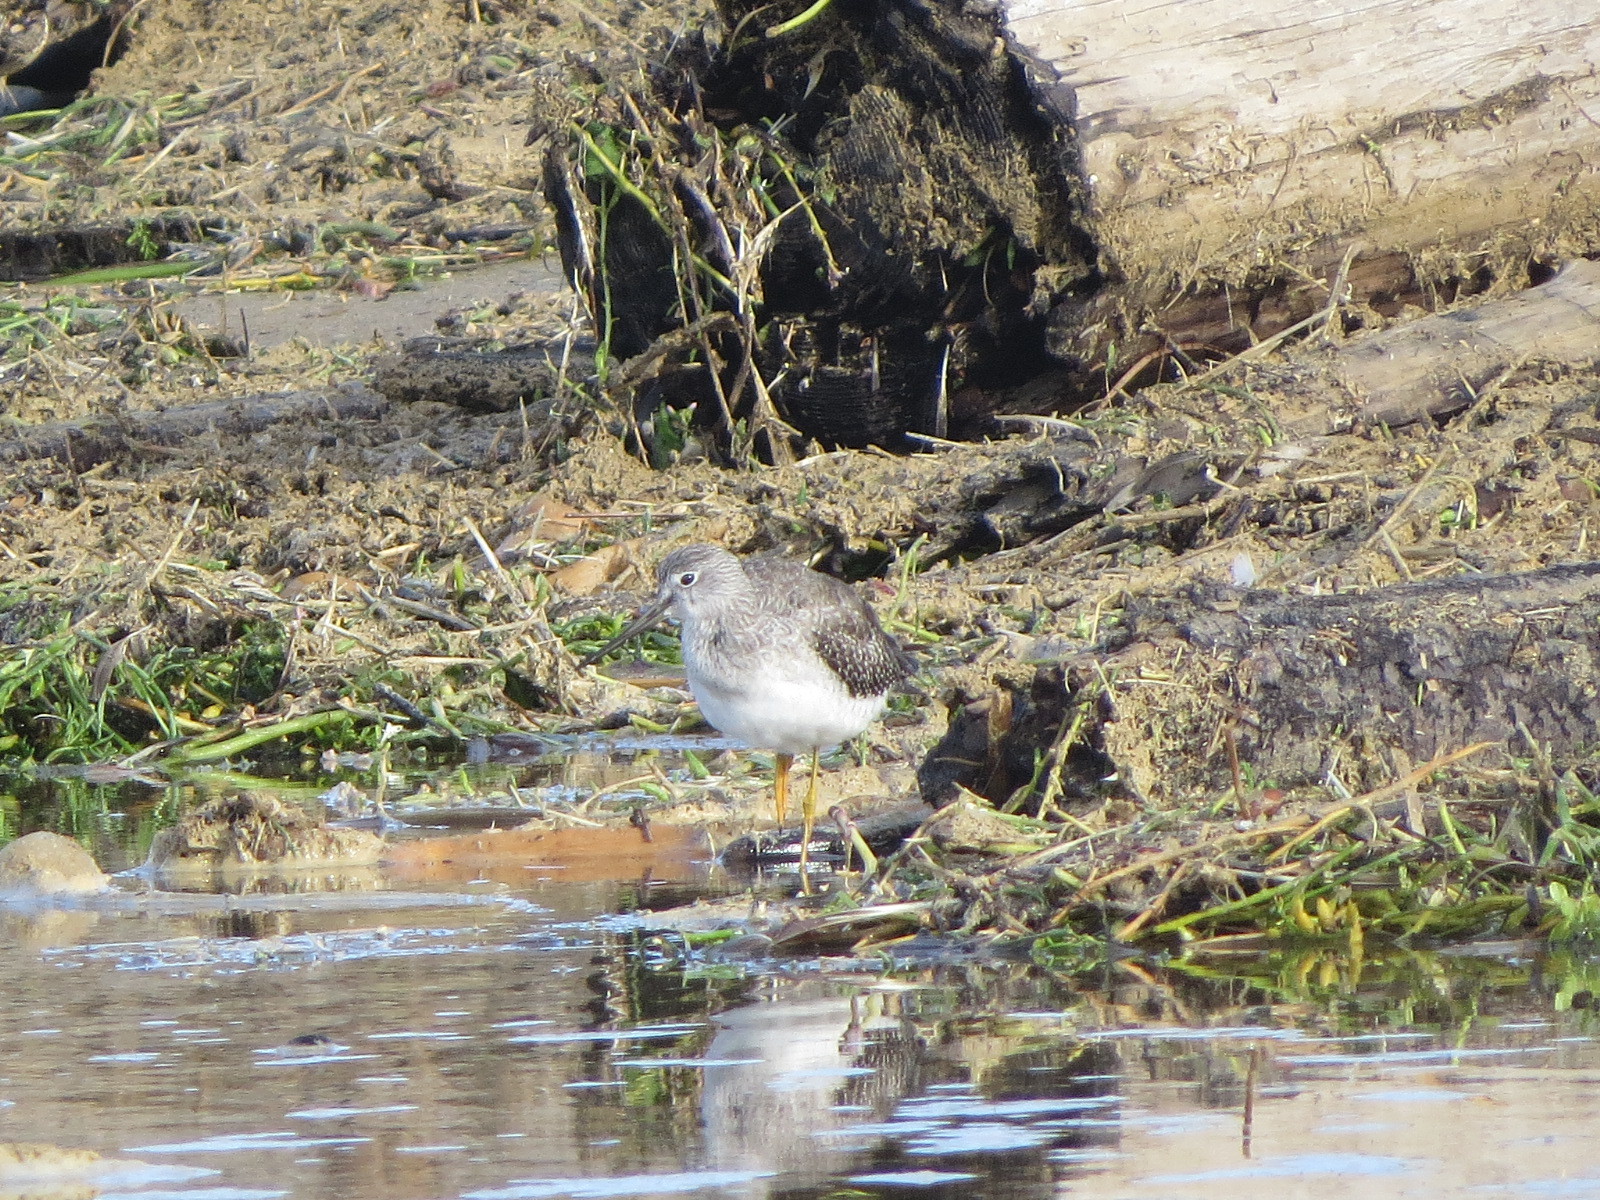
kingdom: Animalia
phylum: Chordata
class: Aves
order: Charadriiformes
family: Scolopacidae
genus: Tringa
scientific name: Tringa melanoleuca
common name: Greater yellowlegs
